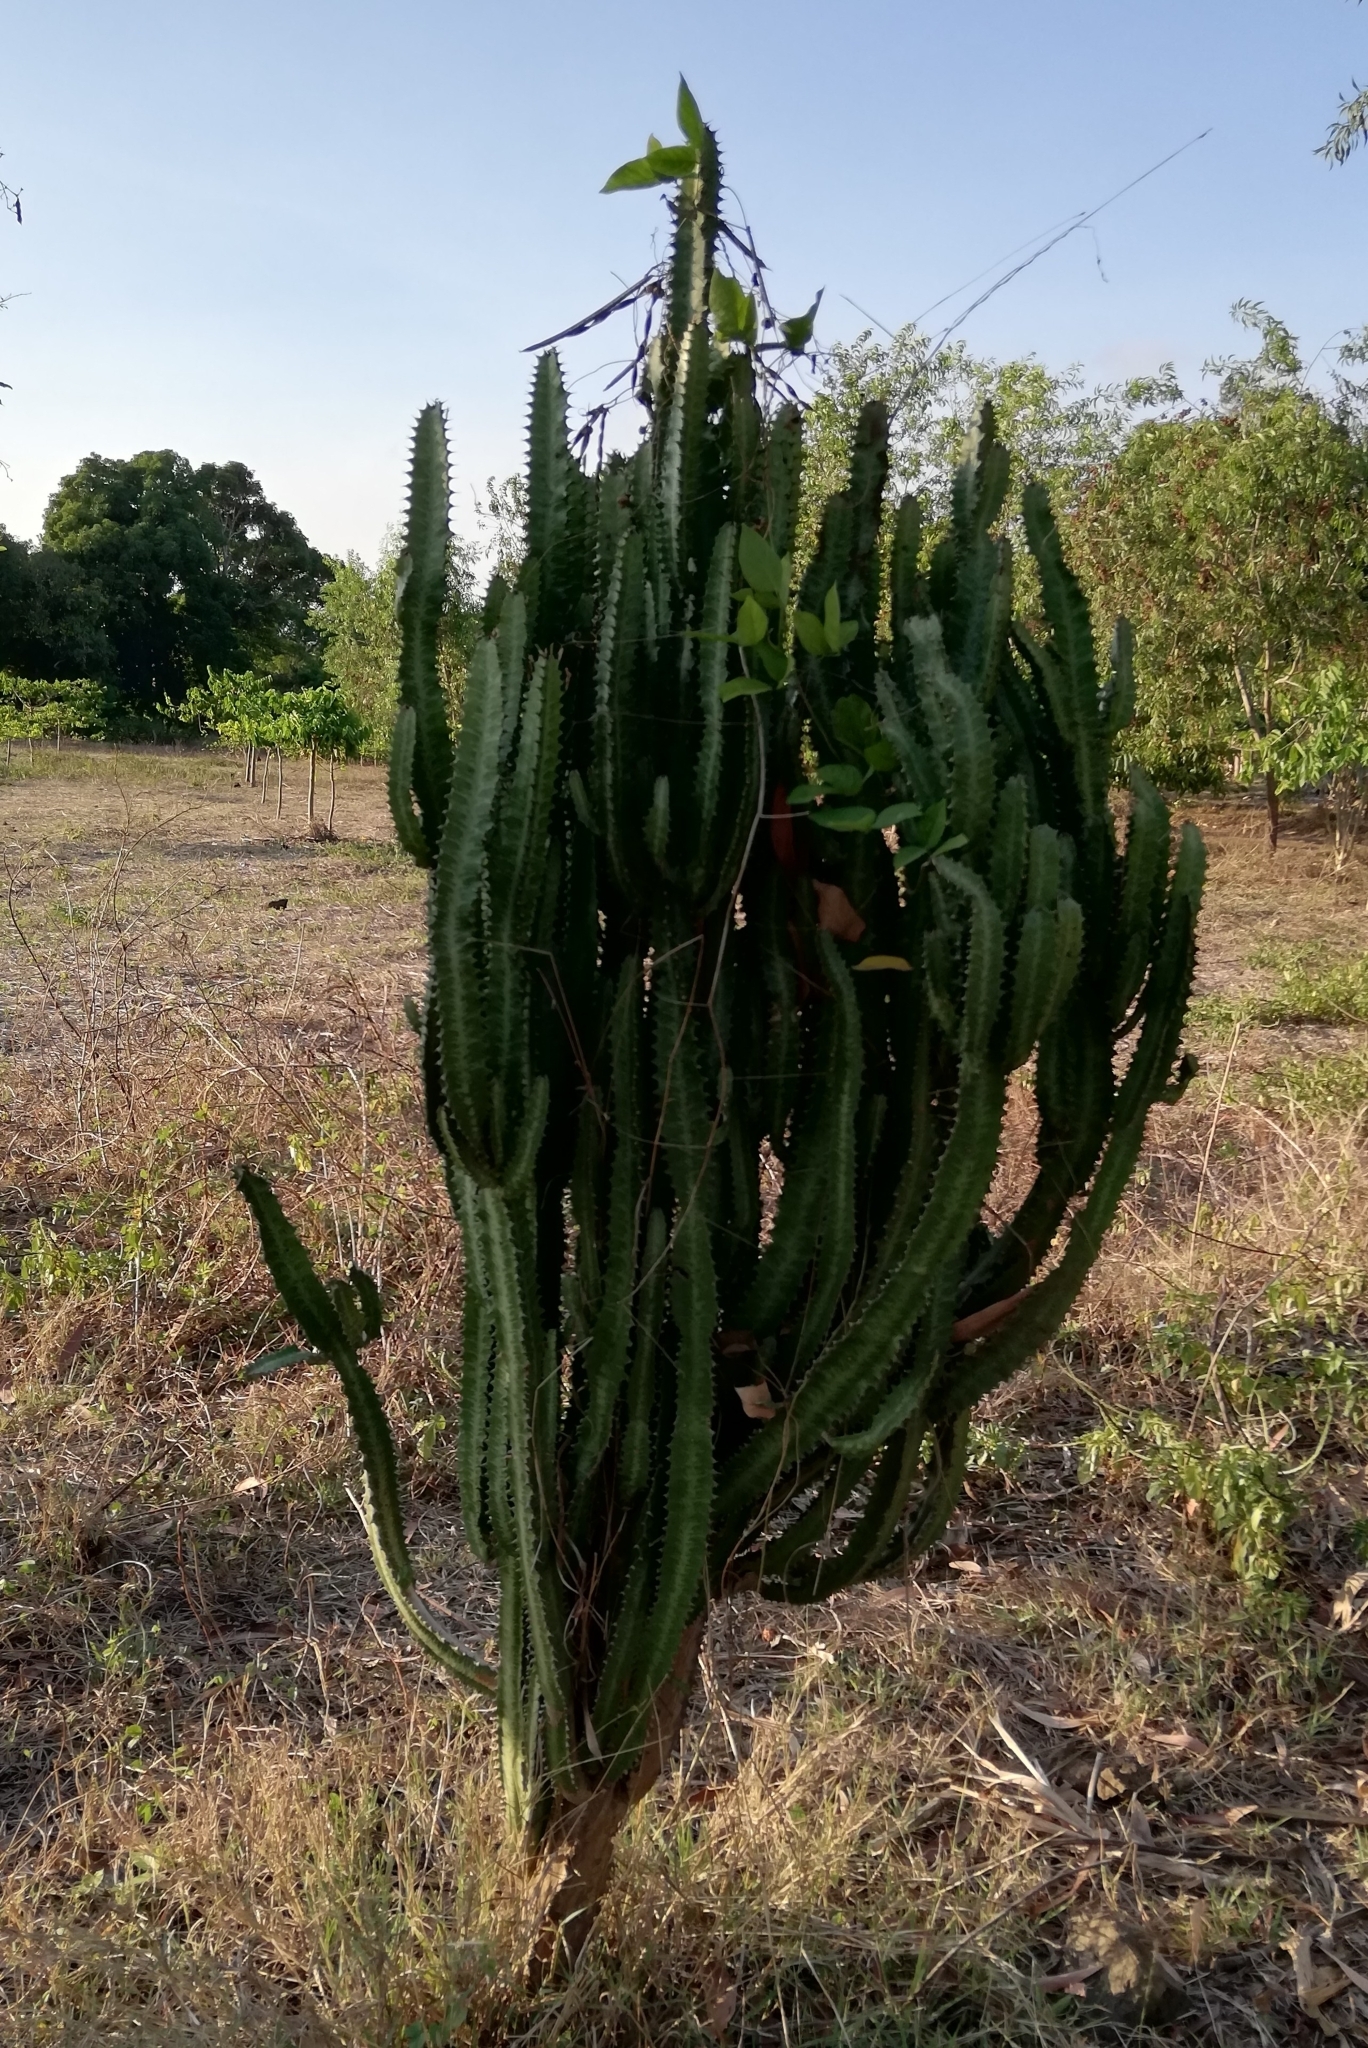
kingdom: Plantae
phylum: Tracheophyta
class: Magnoliopsida
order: Malpighiales
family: Euphorbiaceae
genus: Euphorbia
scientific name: Euphorbia trigona
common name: African milktree
